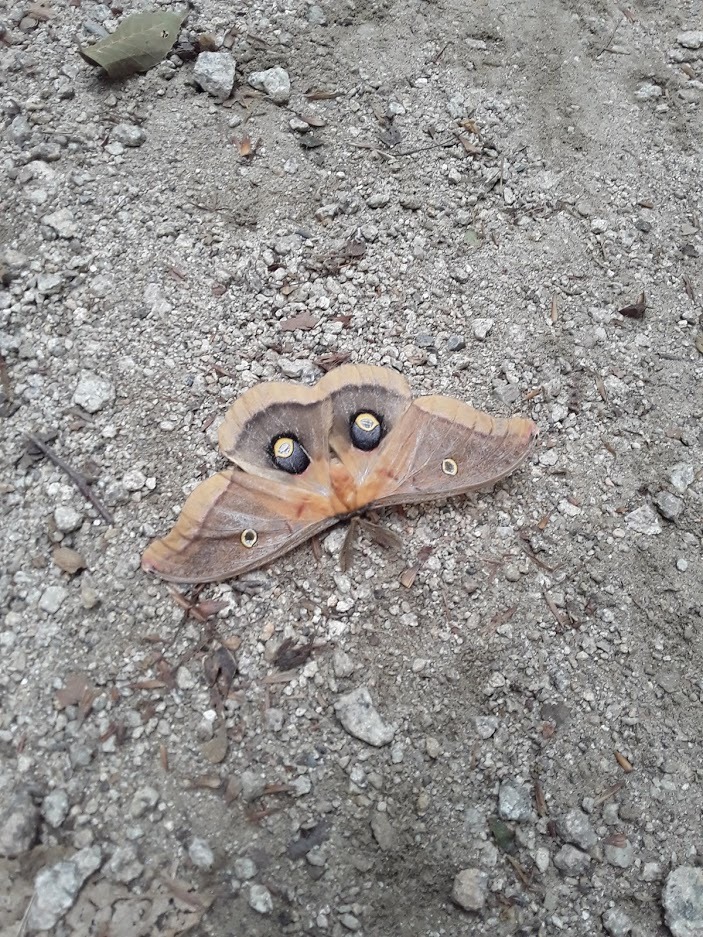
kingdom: Animalia
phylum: Arthropoda
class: Insecta
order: Lepidoptera
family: Saturniidae
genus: Antheraea
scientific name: Antheraea polyphemus
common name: Polyphemus moth
